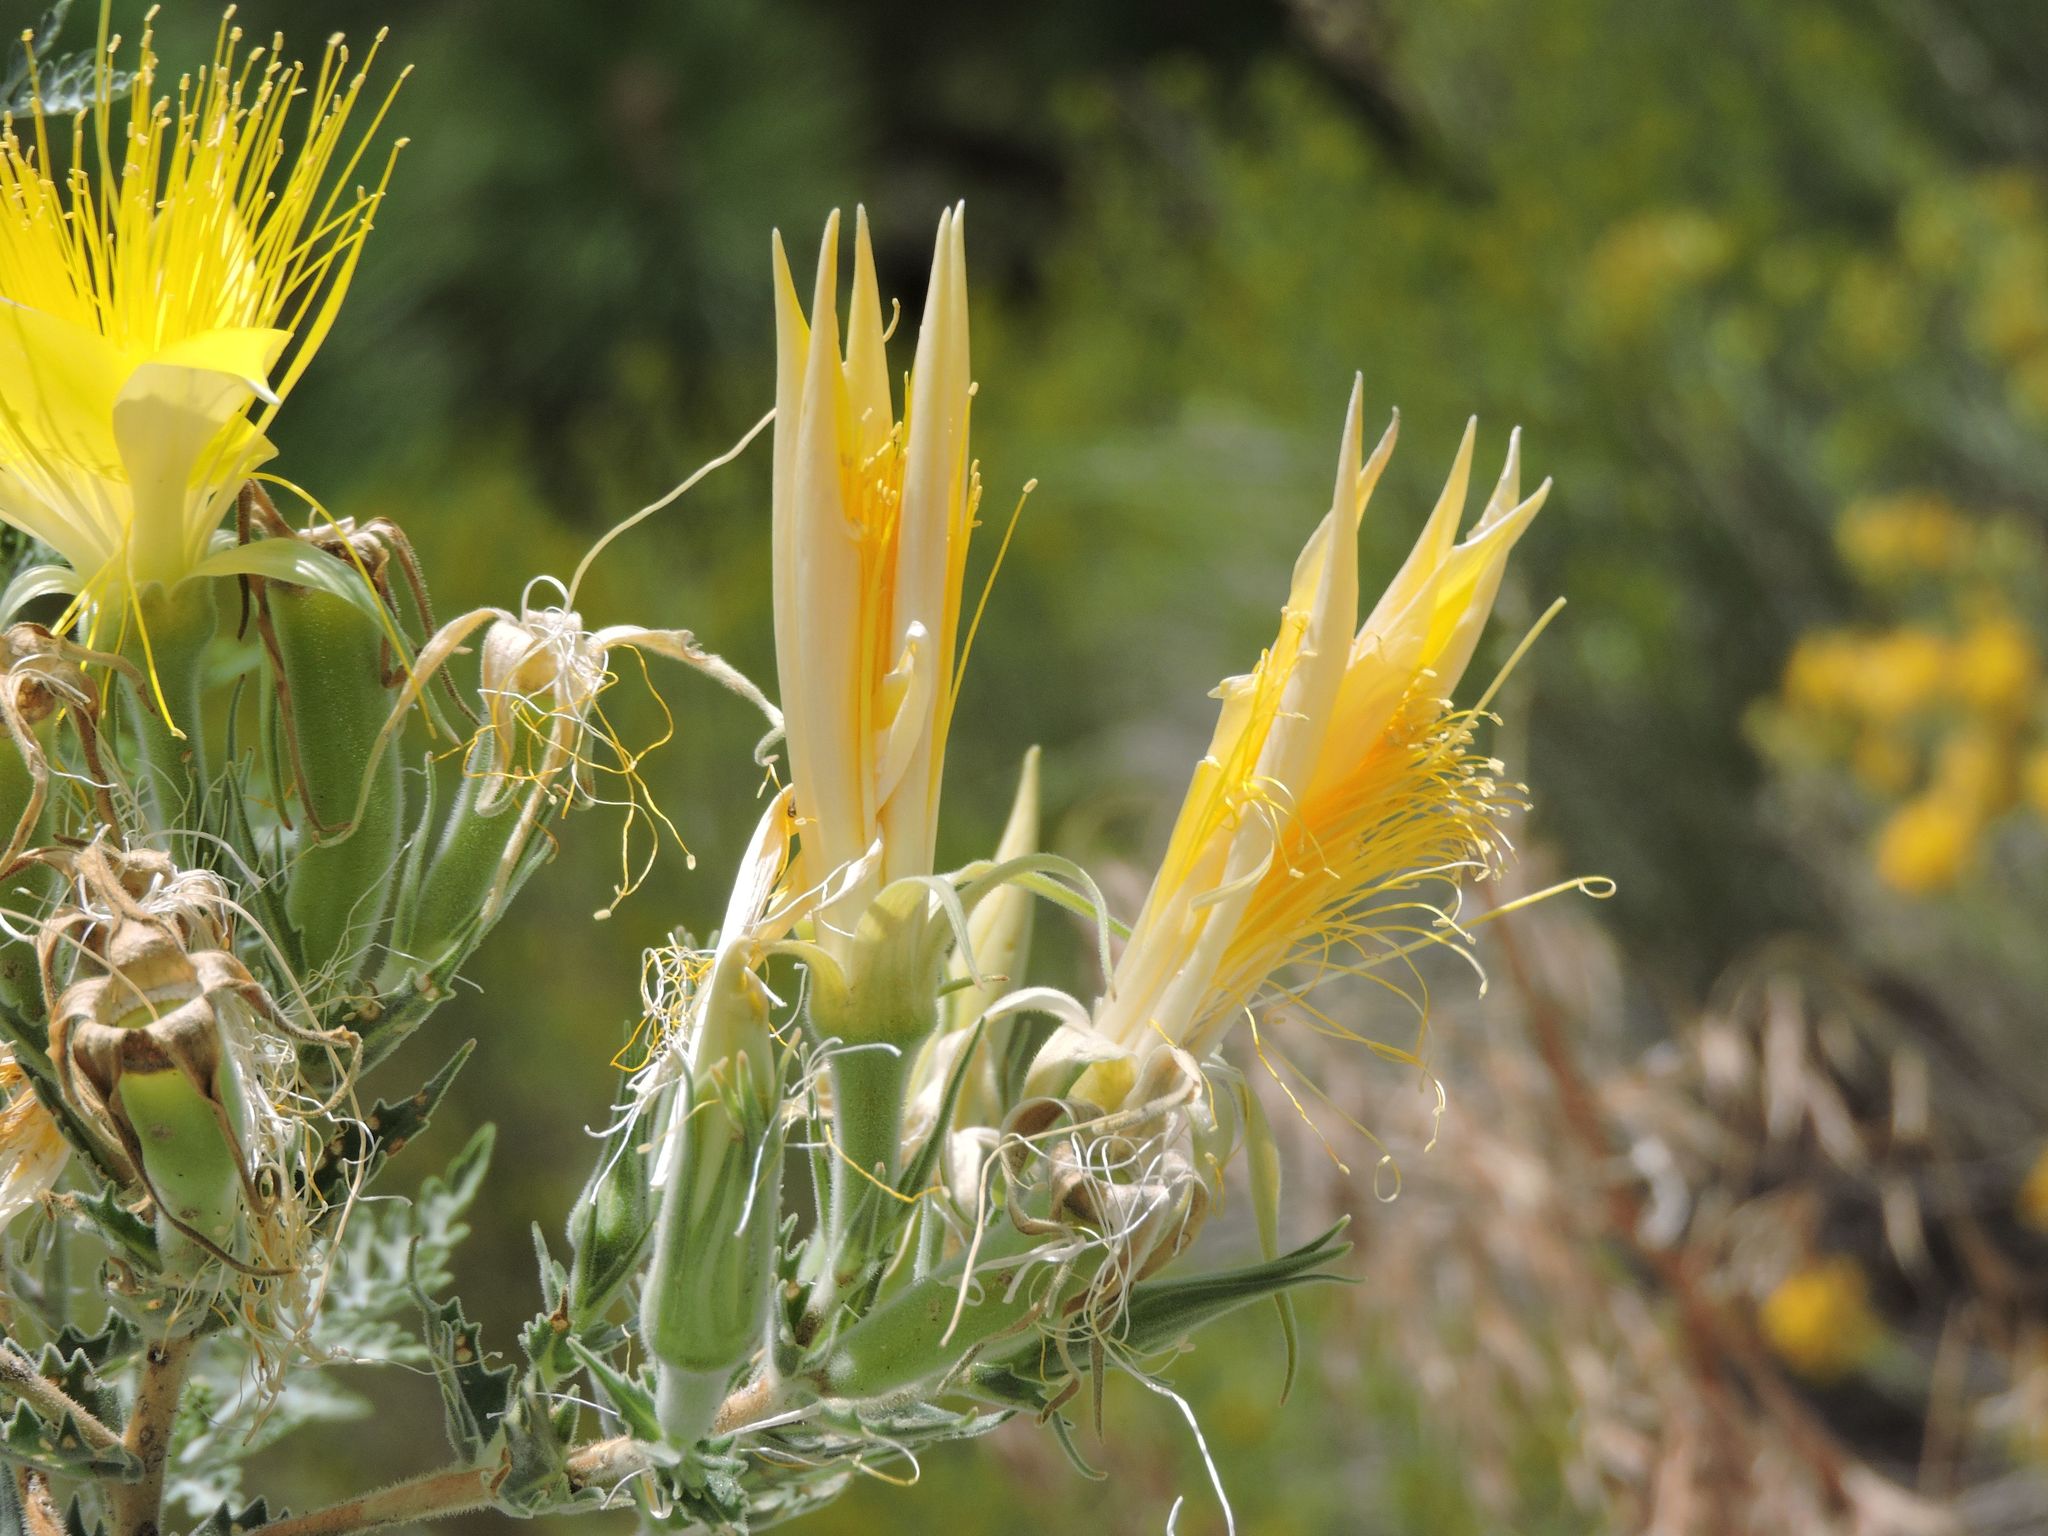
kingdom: Plantae
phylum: Tracheophyta
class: Magnoliopsida
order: Cornales
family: Loasaceae
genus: Mentzelia
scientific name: Mentzelia laevicaulis
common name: Smooth-stem blazingstar
